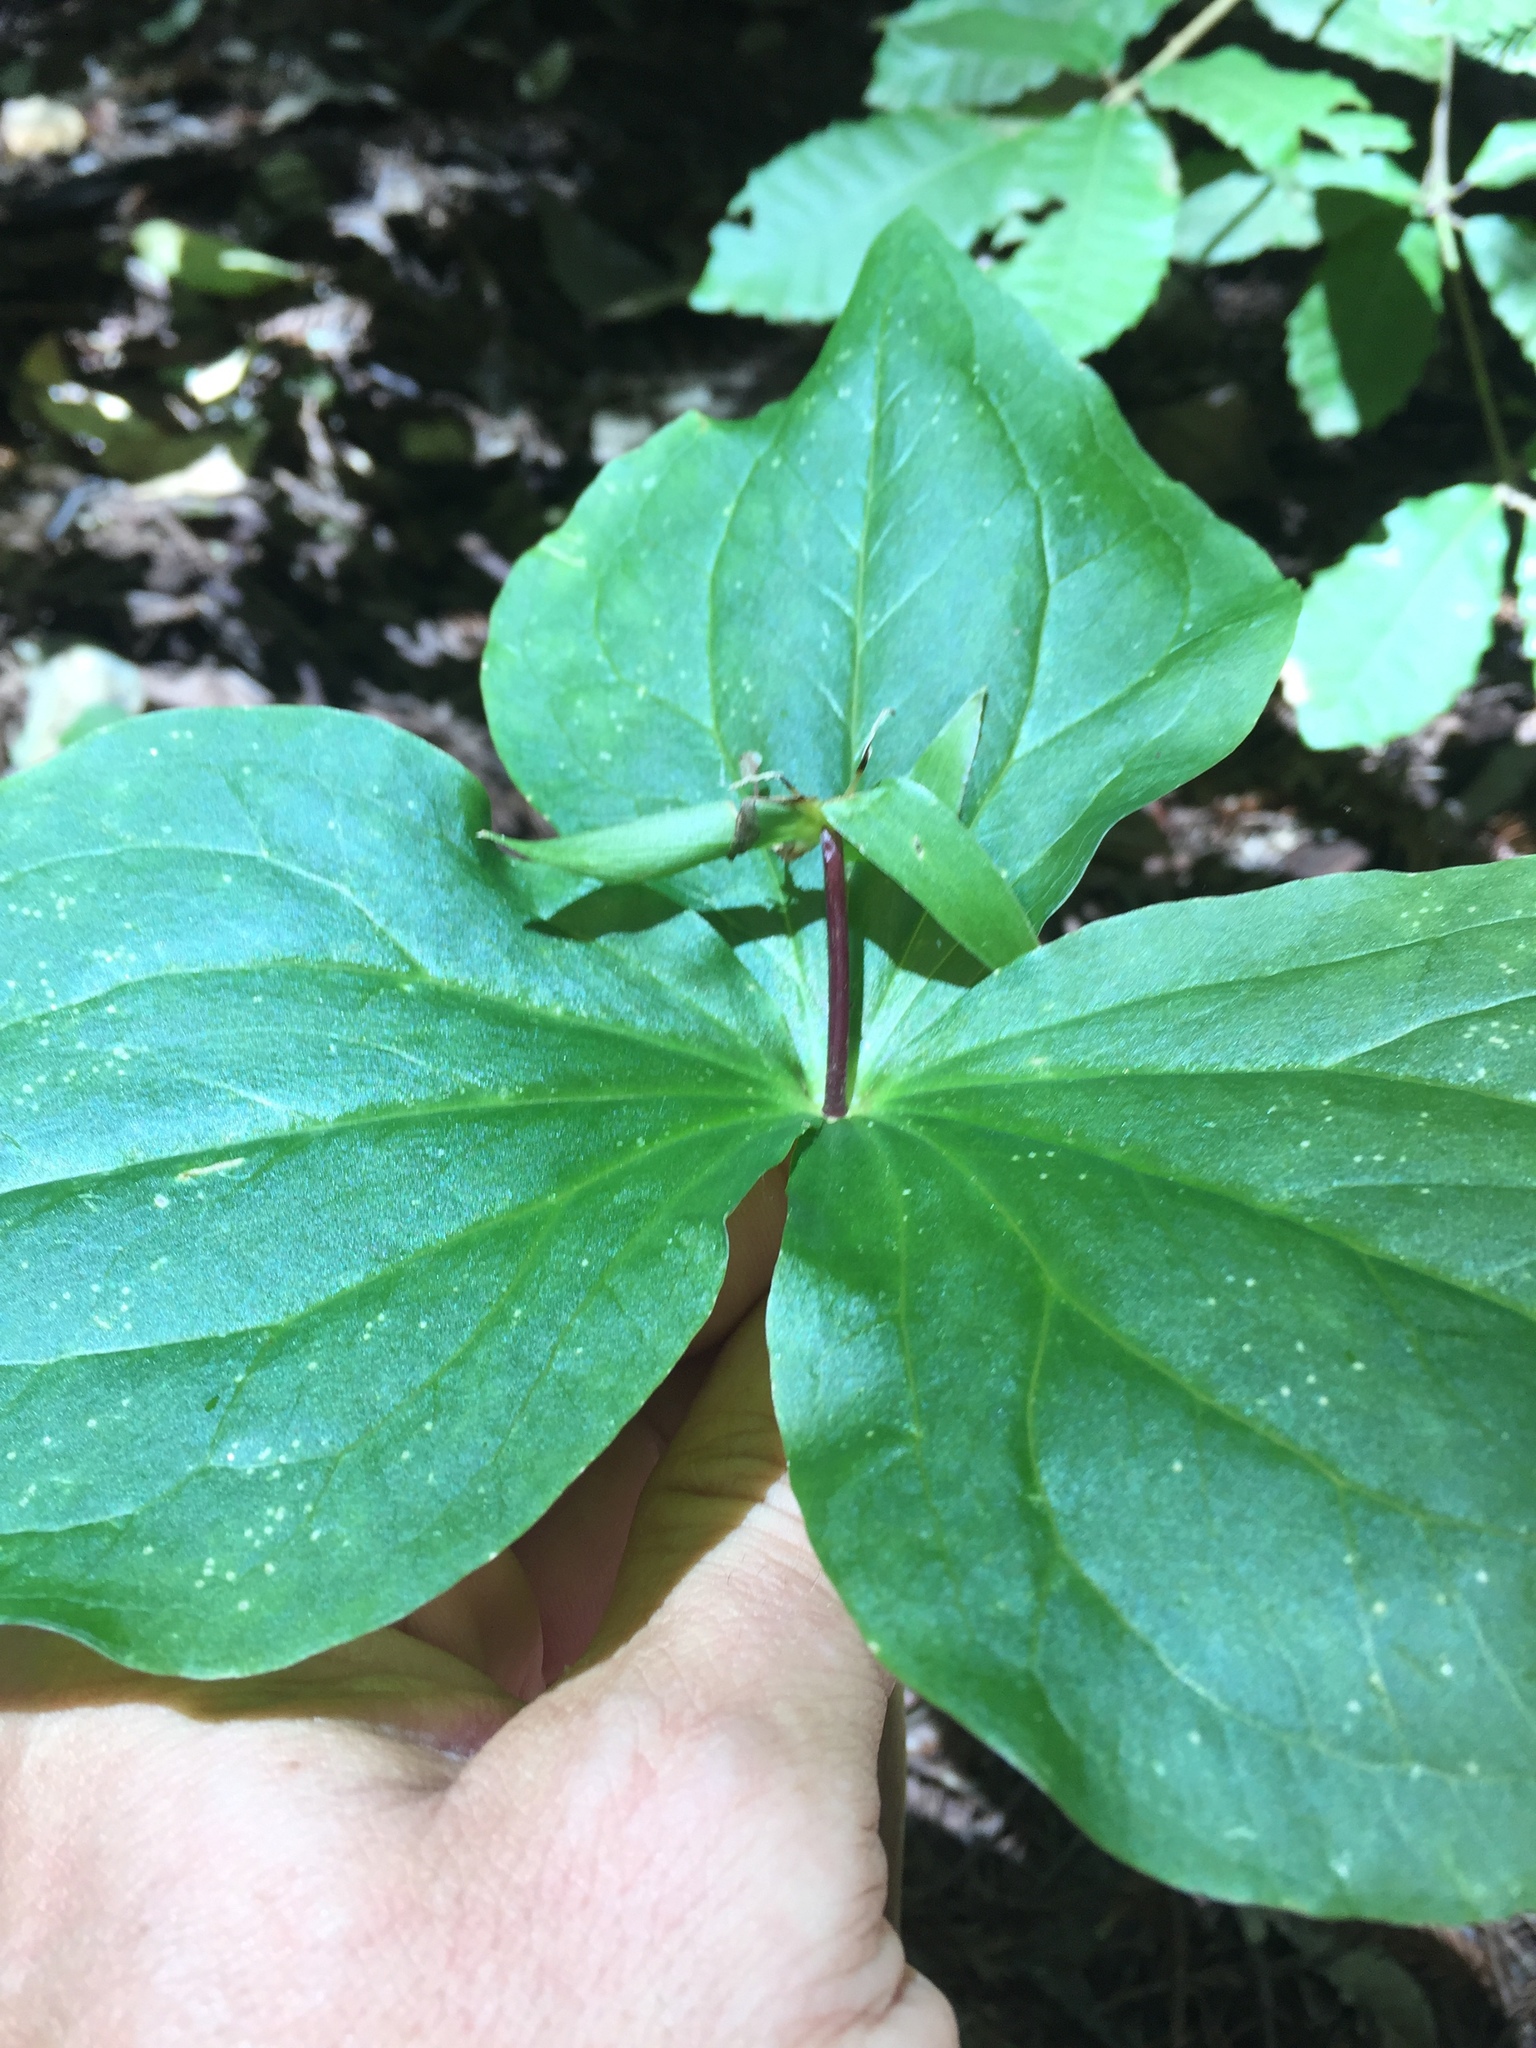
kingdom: Plantae
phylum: Tracheophyta
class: Liliopsida
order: Liliales
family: Melanthiaceae
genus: Trillium
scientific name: Trillium ovatum
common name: Pacific trillium
